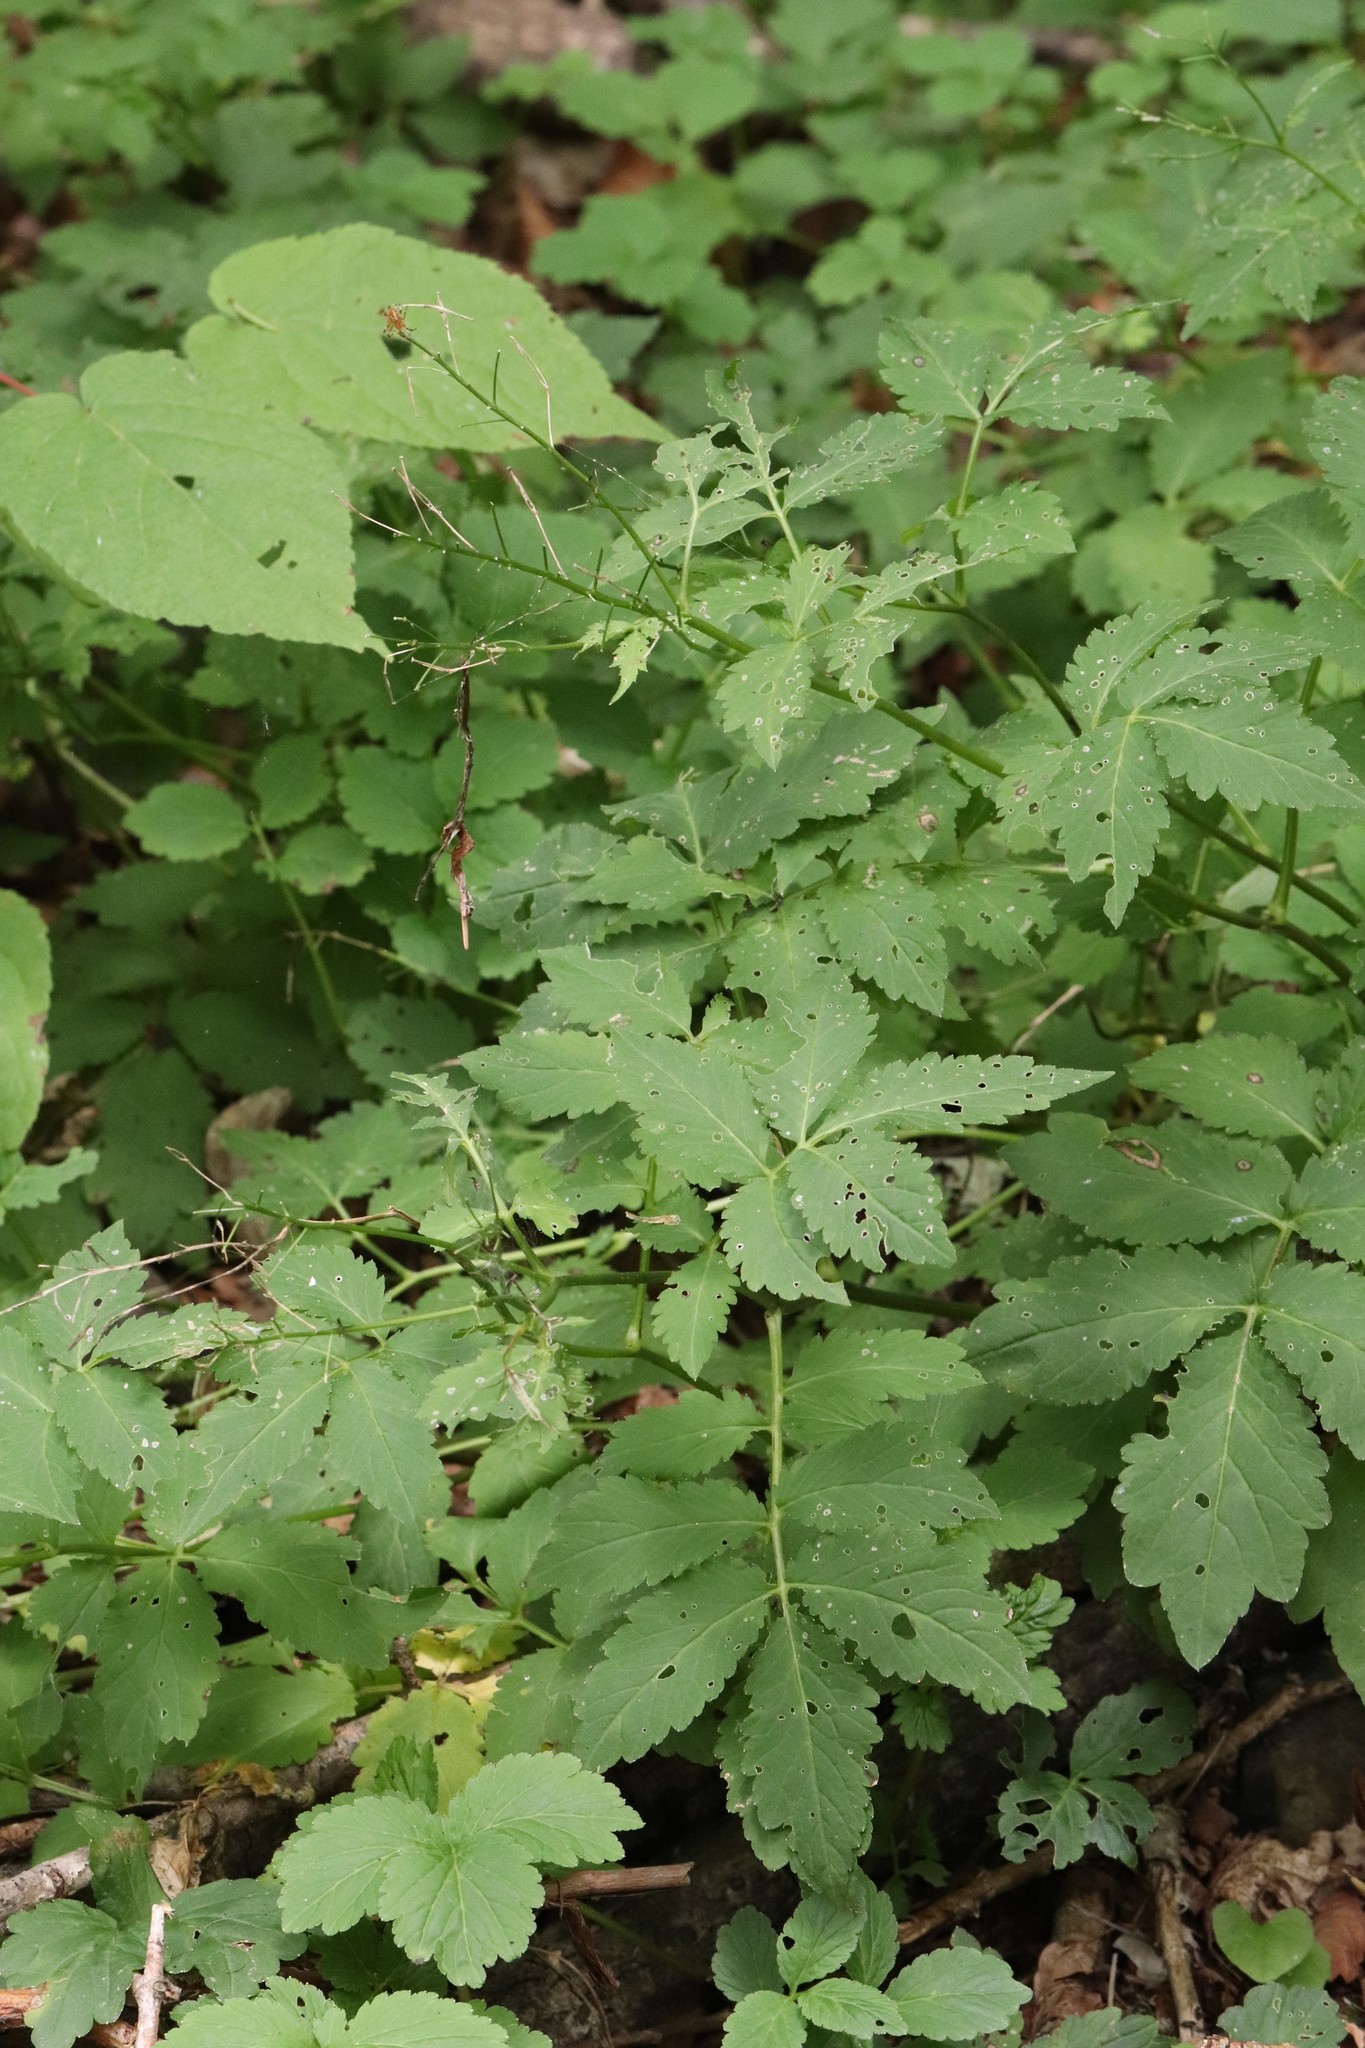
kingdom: Plantae
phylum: Tracheophyta
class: Magnoliopsida
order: Brassicales
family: Brassicaceae
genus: Cardamine
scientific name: Cardamine macrophylla
